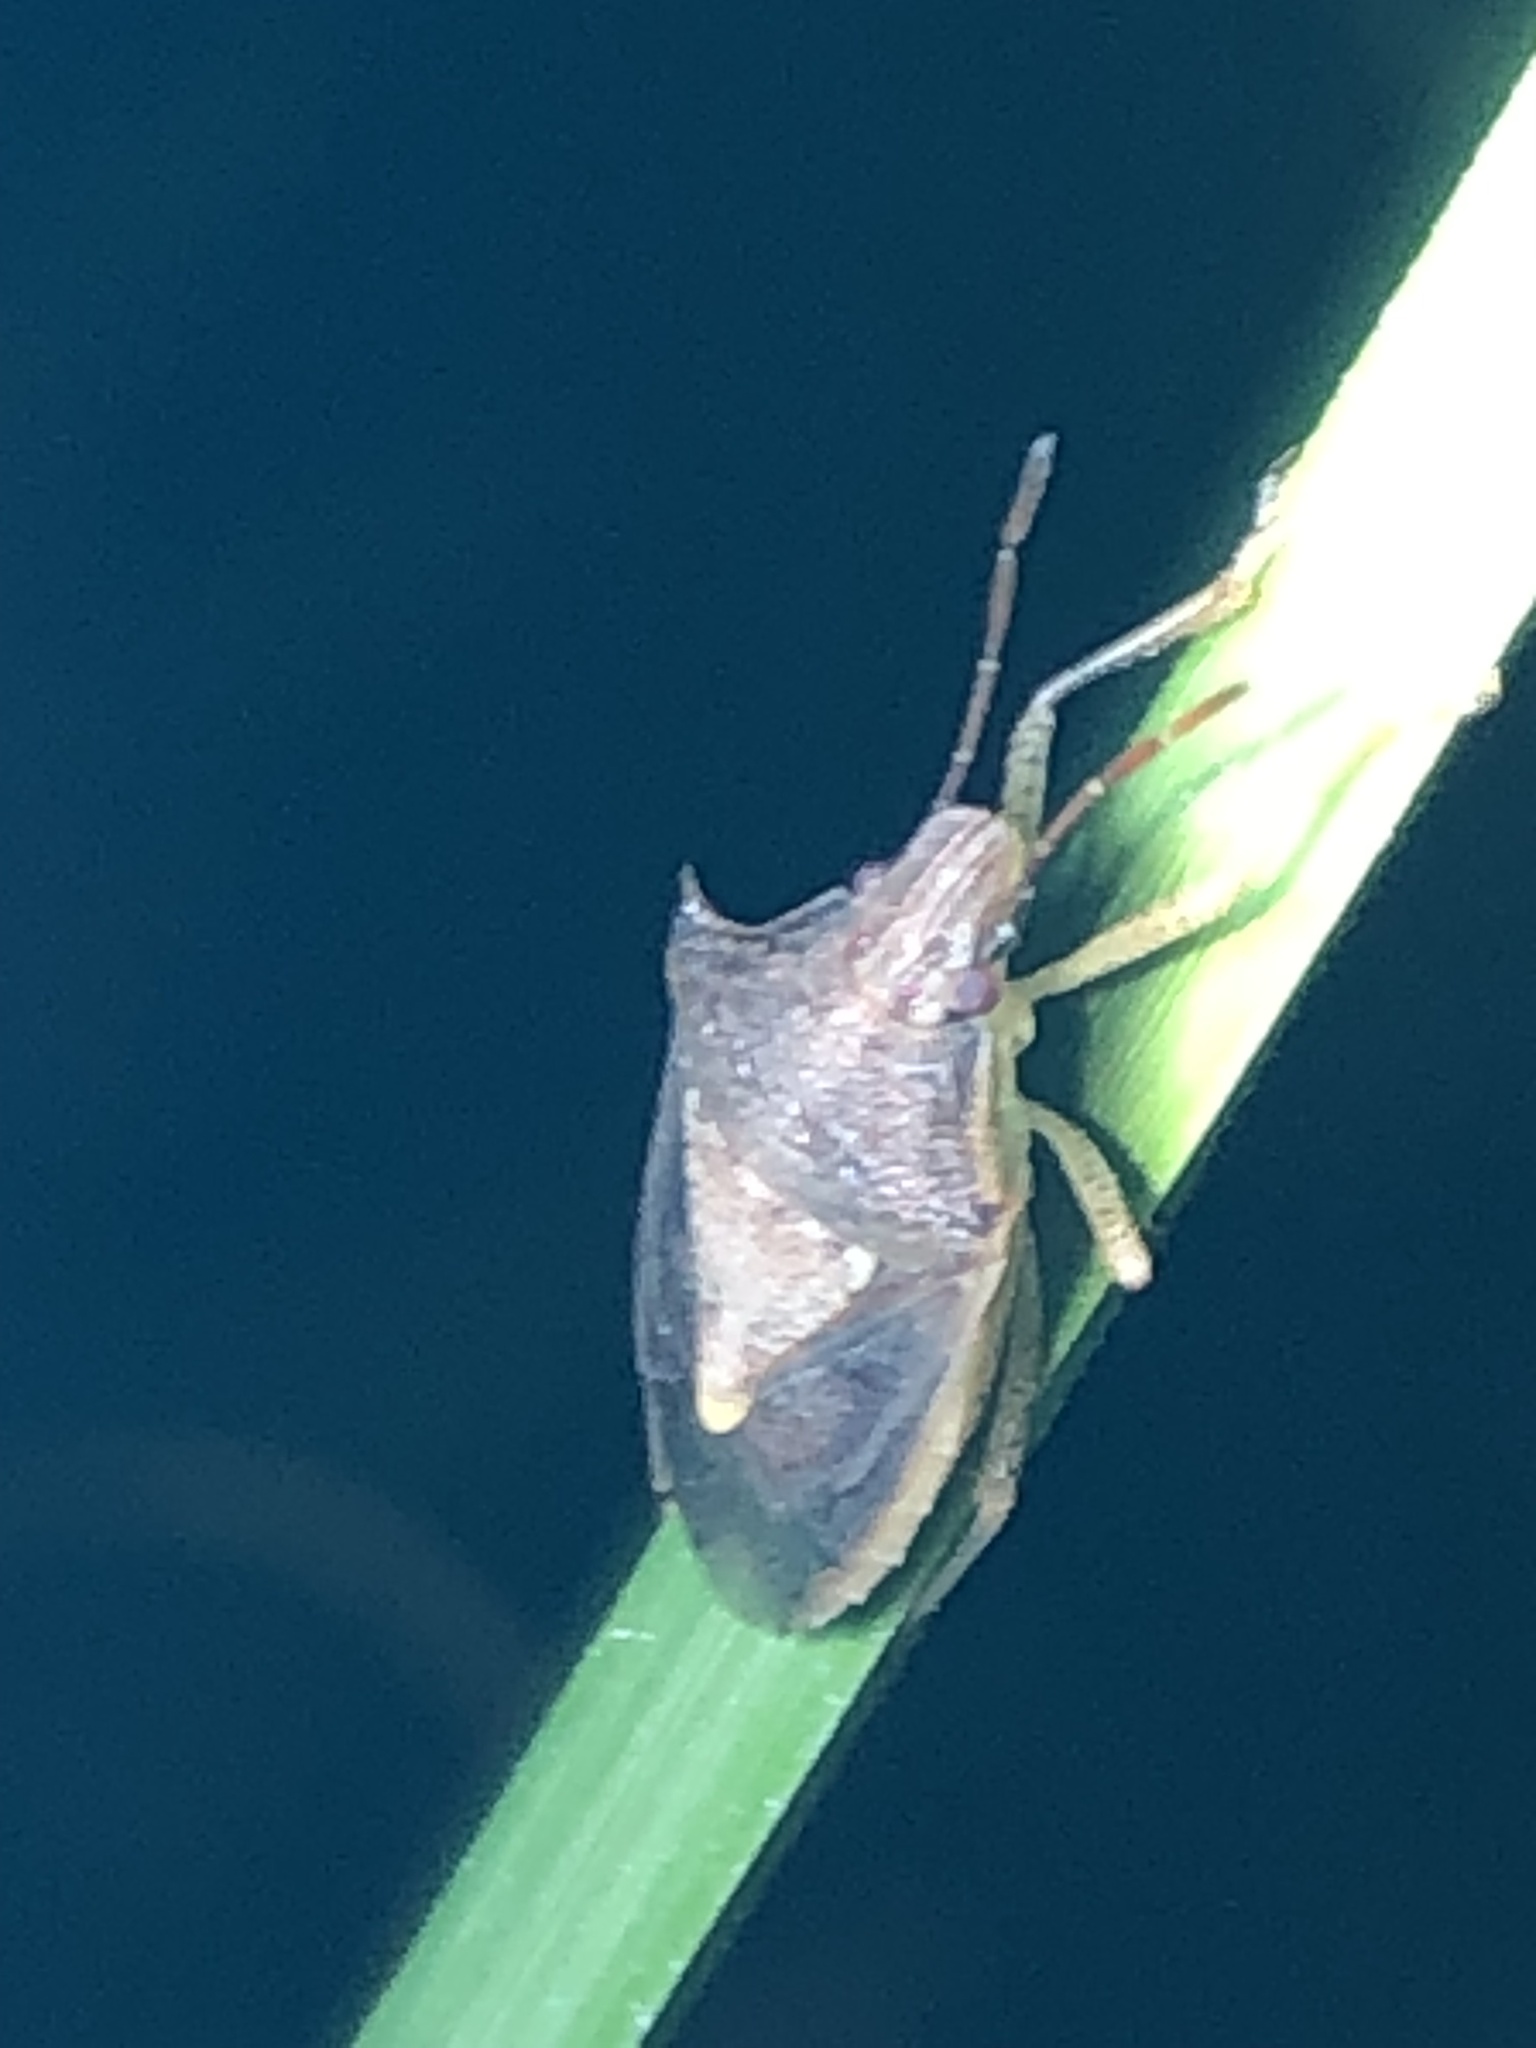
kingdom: Animalia
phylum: Arthropoda
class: Insecta
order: Hemiptera
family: Pentatomidae
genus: Oebalus
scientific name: Oebalus pugnax
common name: Rice stink bug
